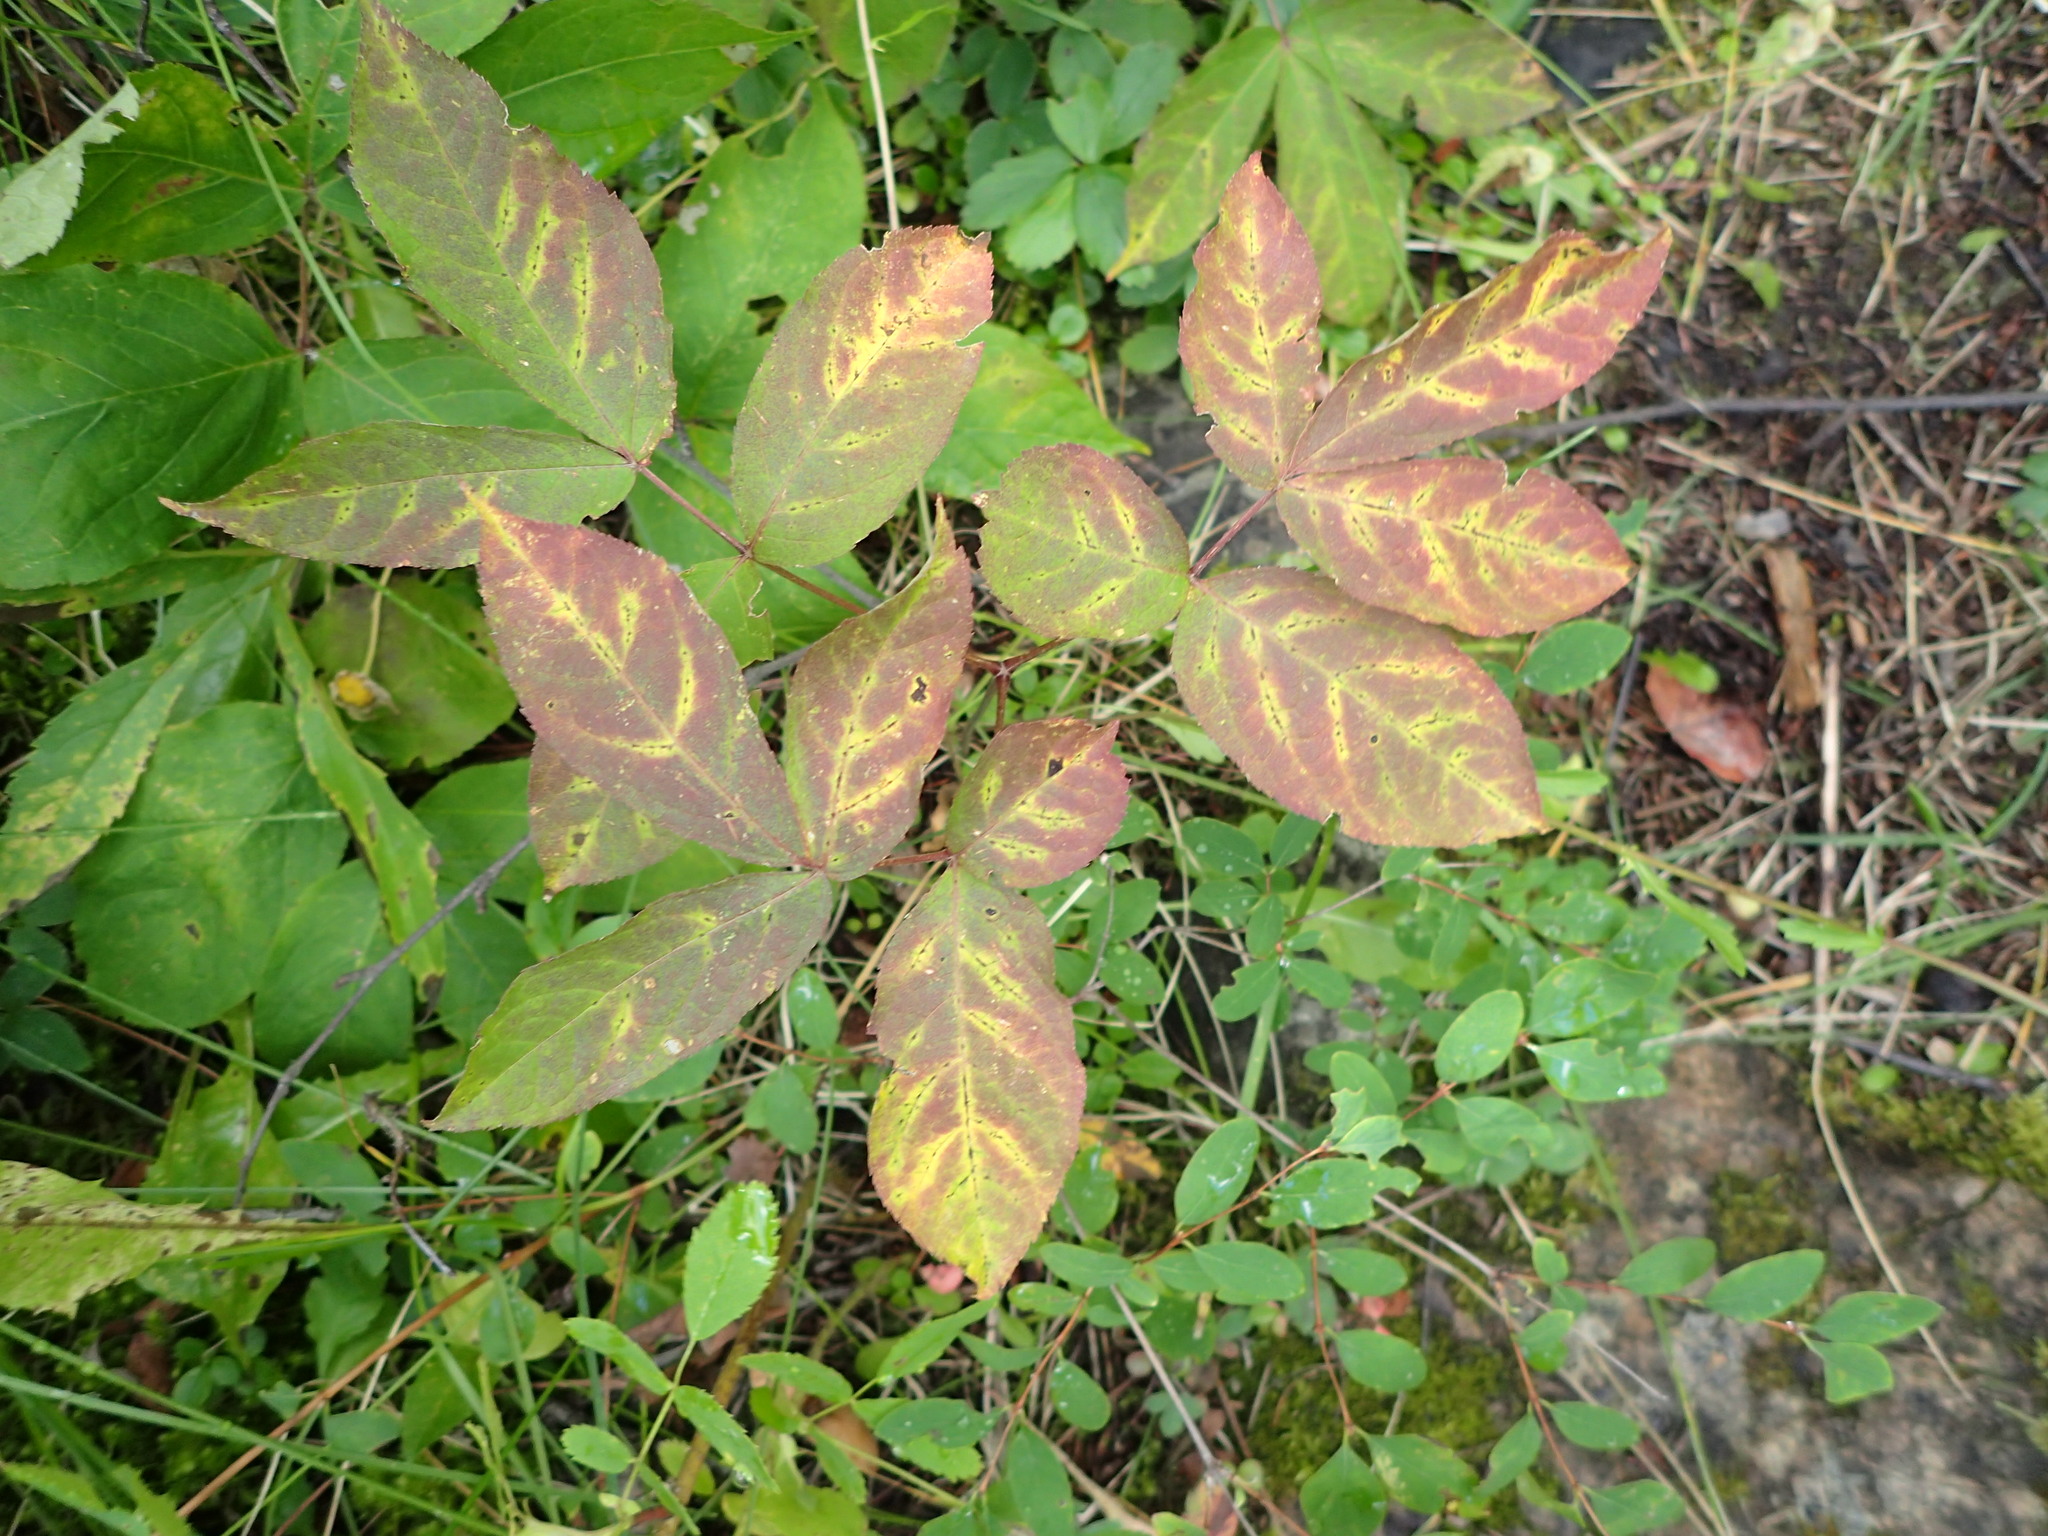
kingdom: Plantae
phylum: Tracheophyta
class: Magnoliopsida
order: Apiales
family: Araliaceae
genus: Aralia
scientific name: Aralia nudicaulis
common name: Wild sarsaparilla
